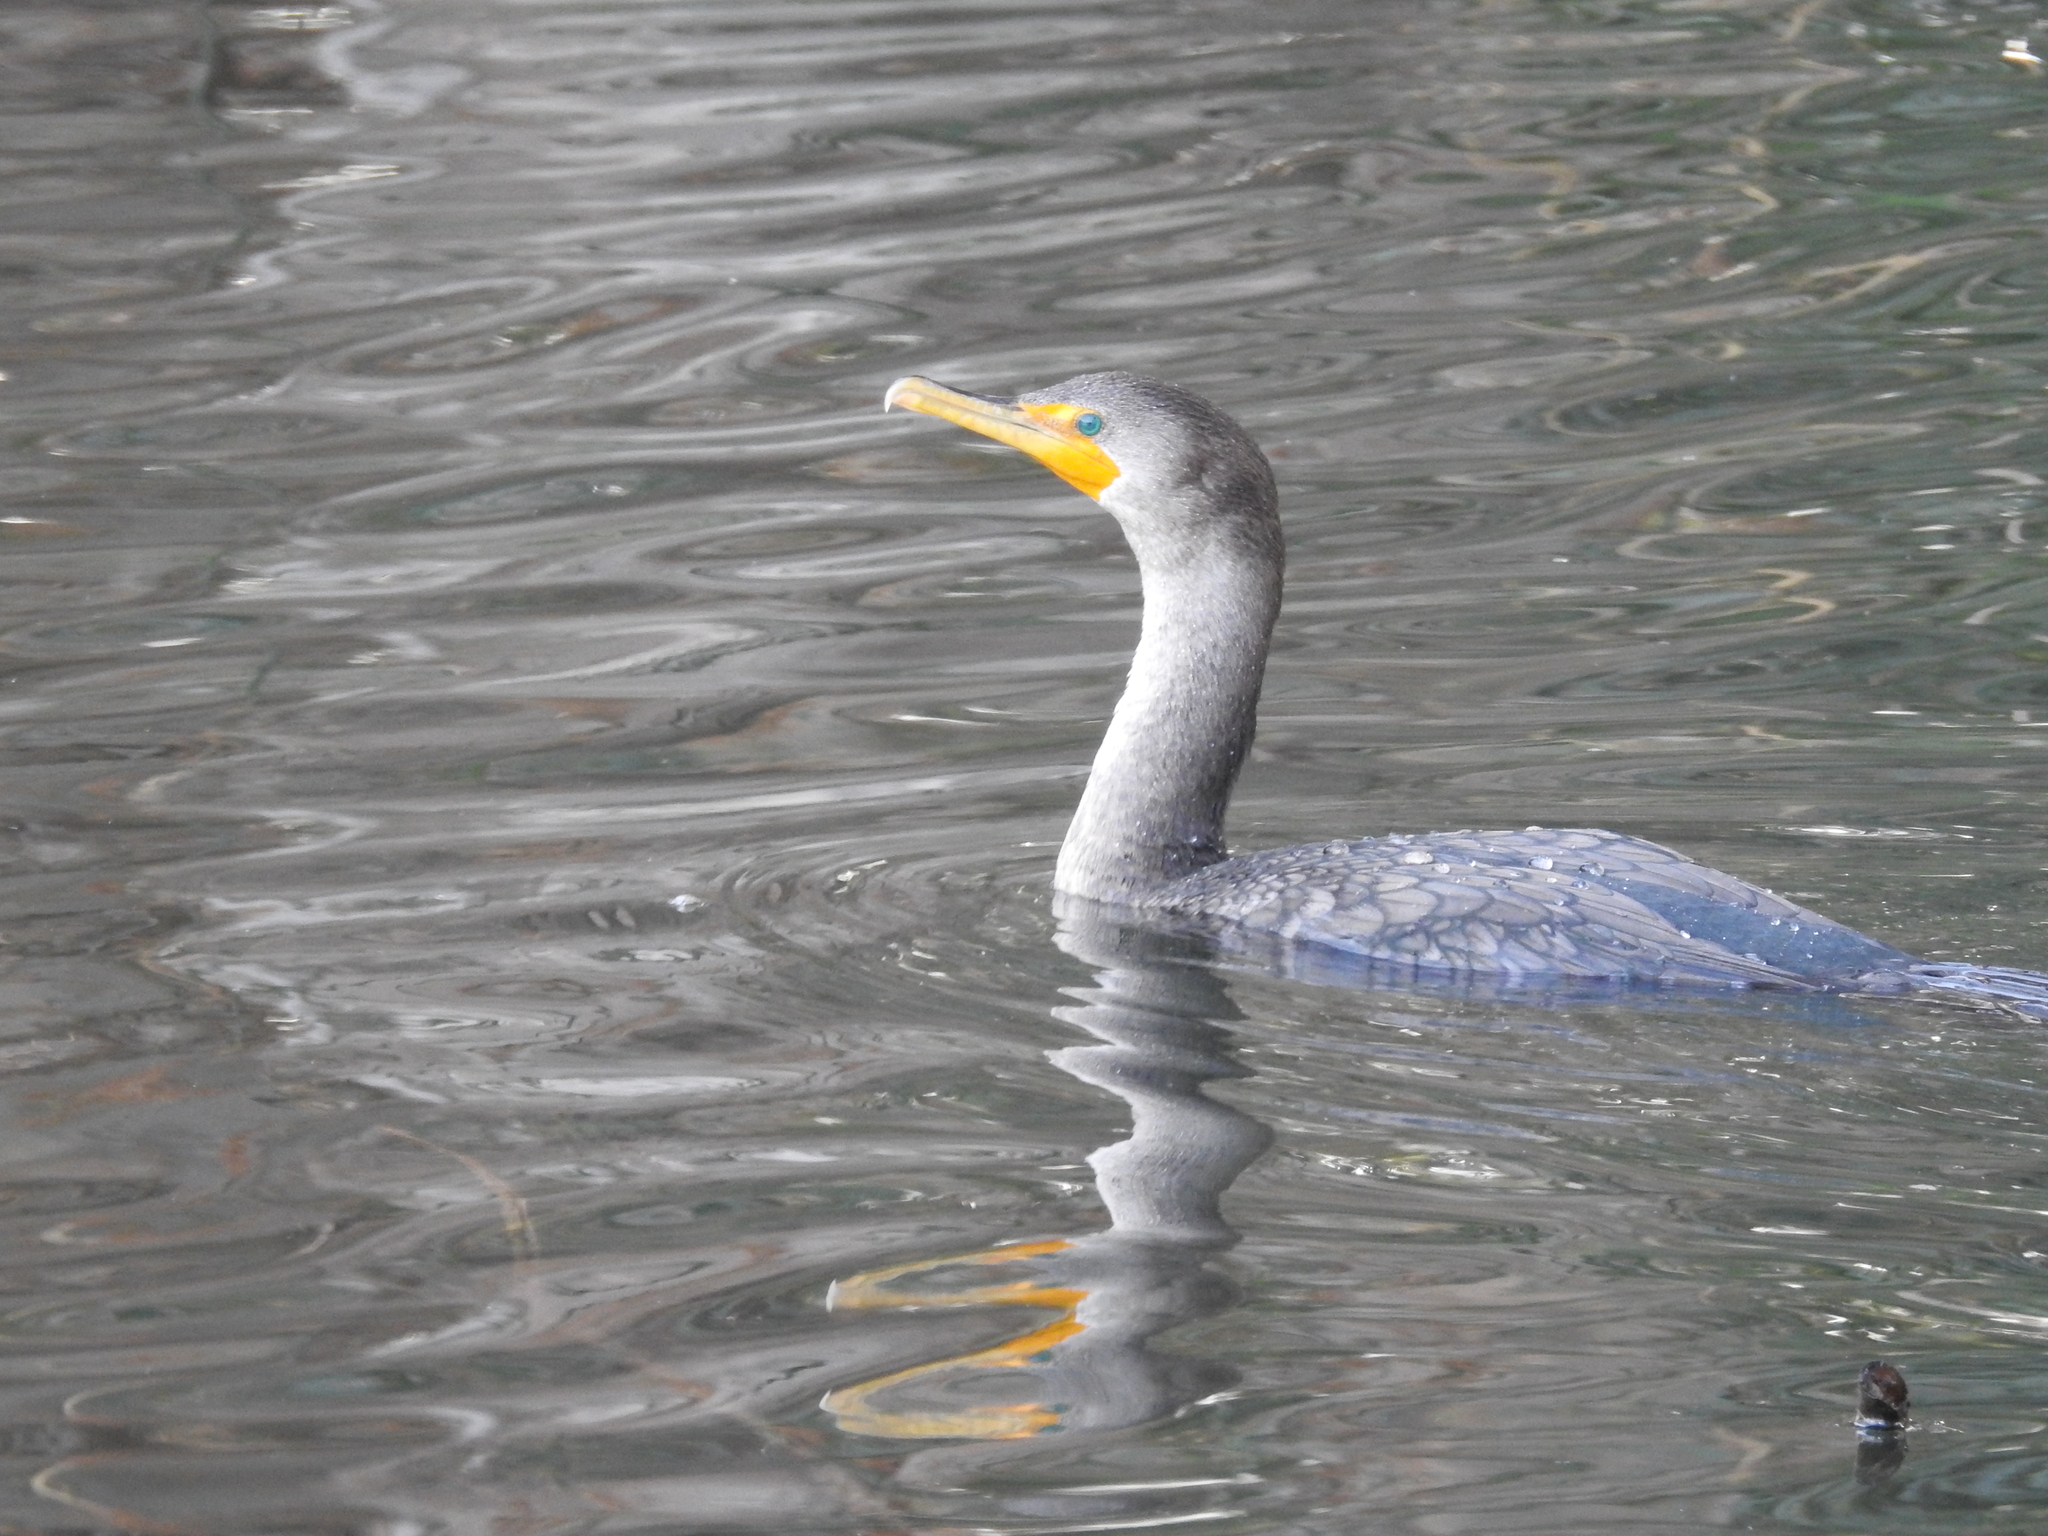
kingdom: Animalia
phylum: Chordata
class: Aves
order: Suliformes
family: Phalacrocoracidae
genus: Phalacrocorax
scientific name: Phalacrocorax auritus
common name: Double-crested cormorant
